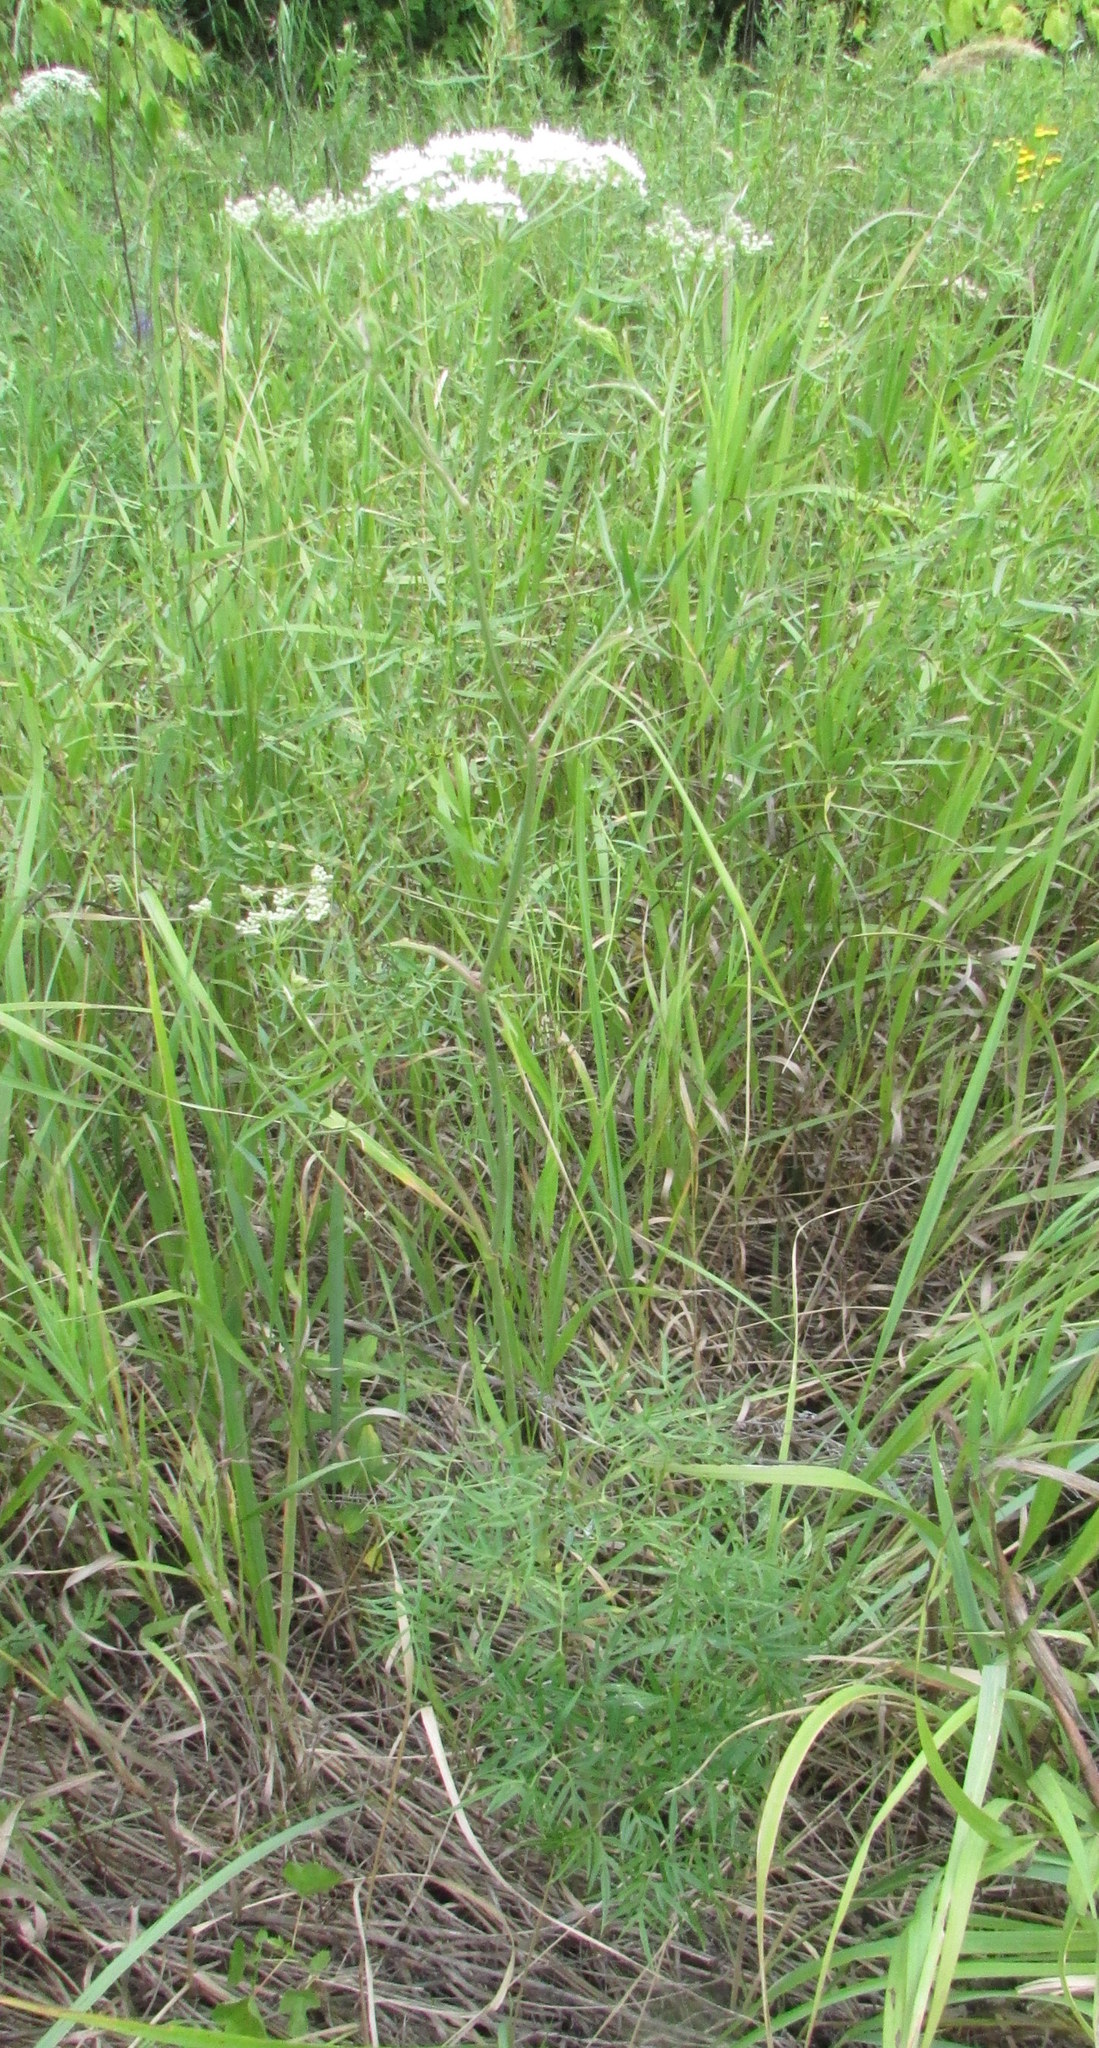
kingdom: Plantae
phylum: Tracheophyta
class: Magnoliopsida
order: Apiales
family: Apiaceae
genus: Cenolophium
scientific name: Cenolophium fischeri
